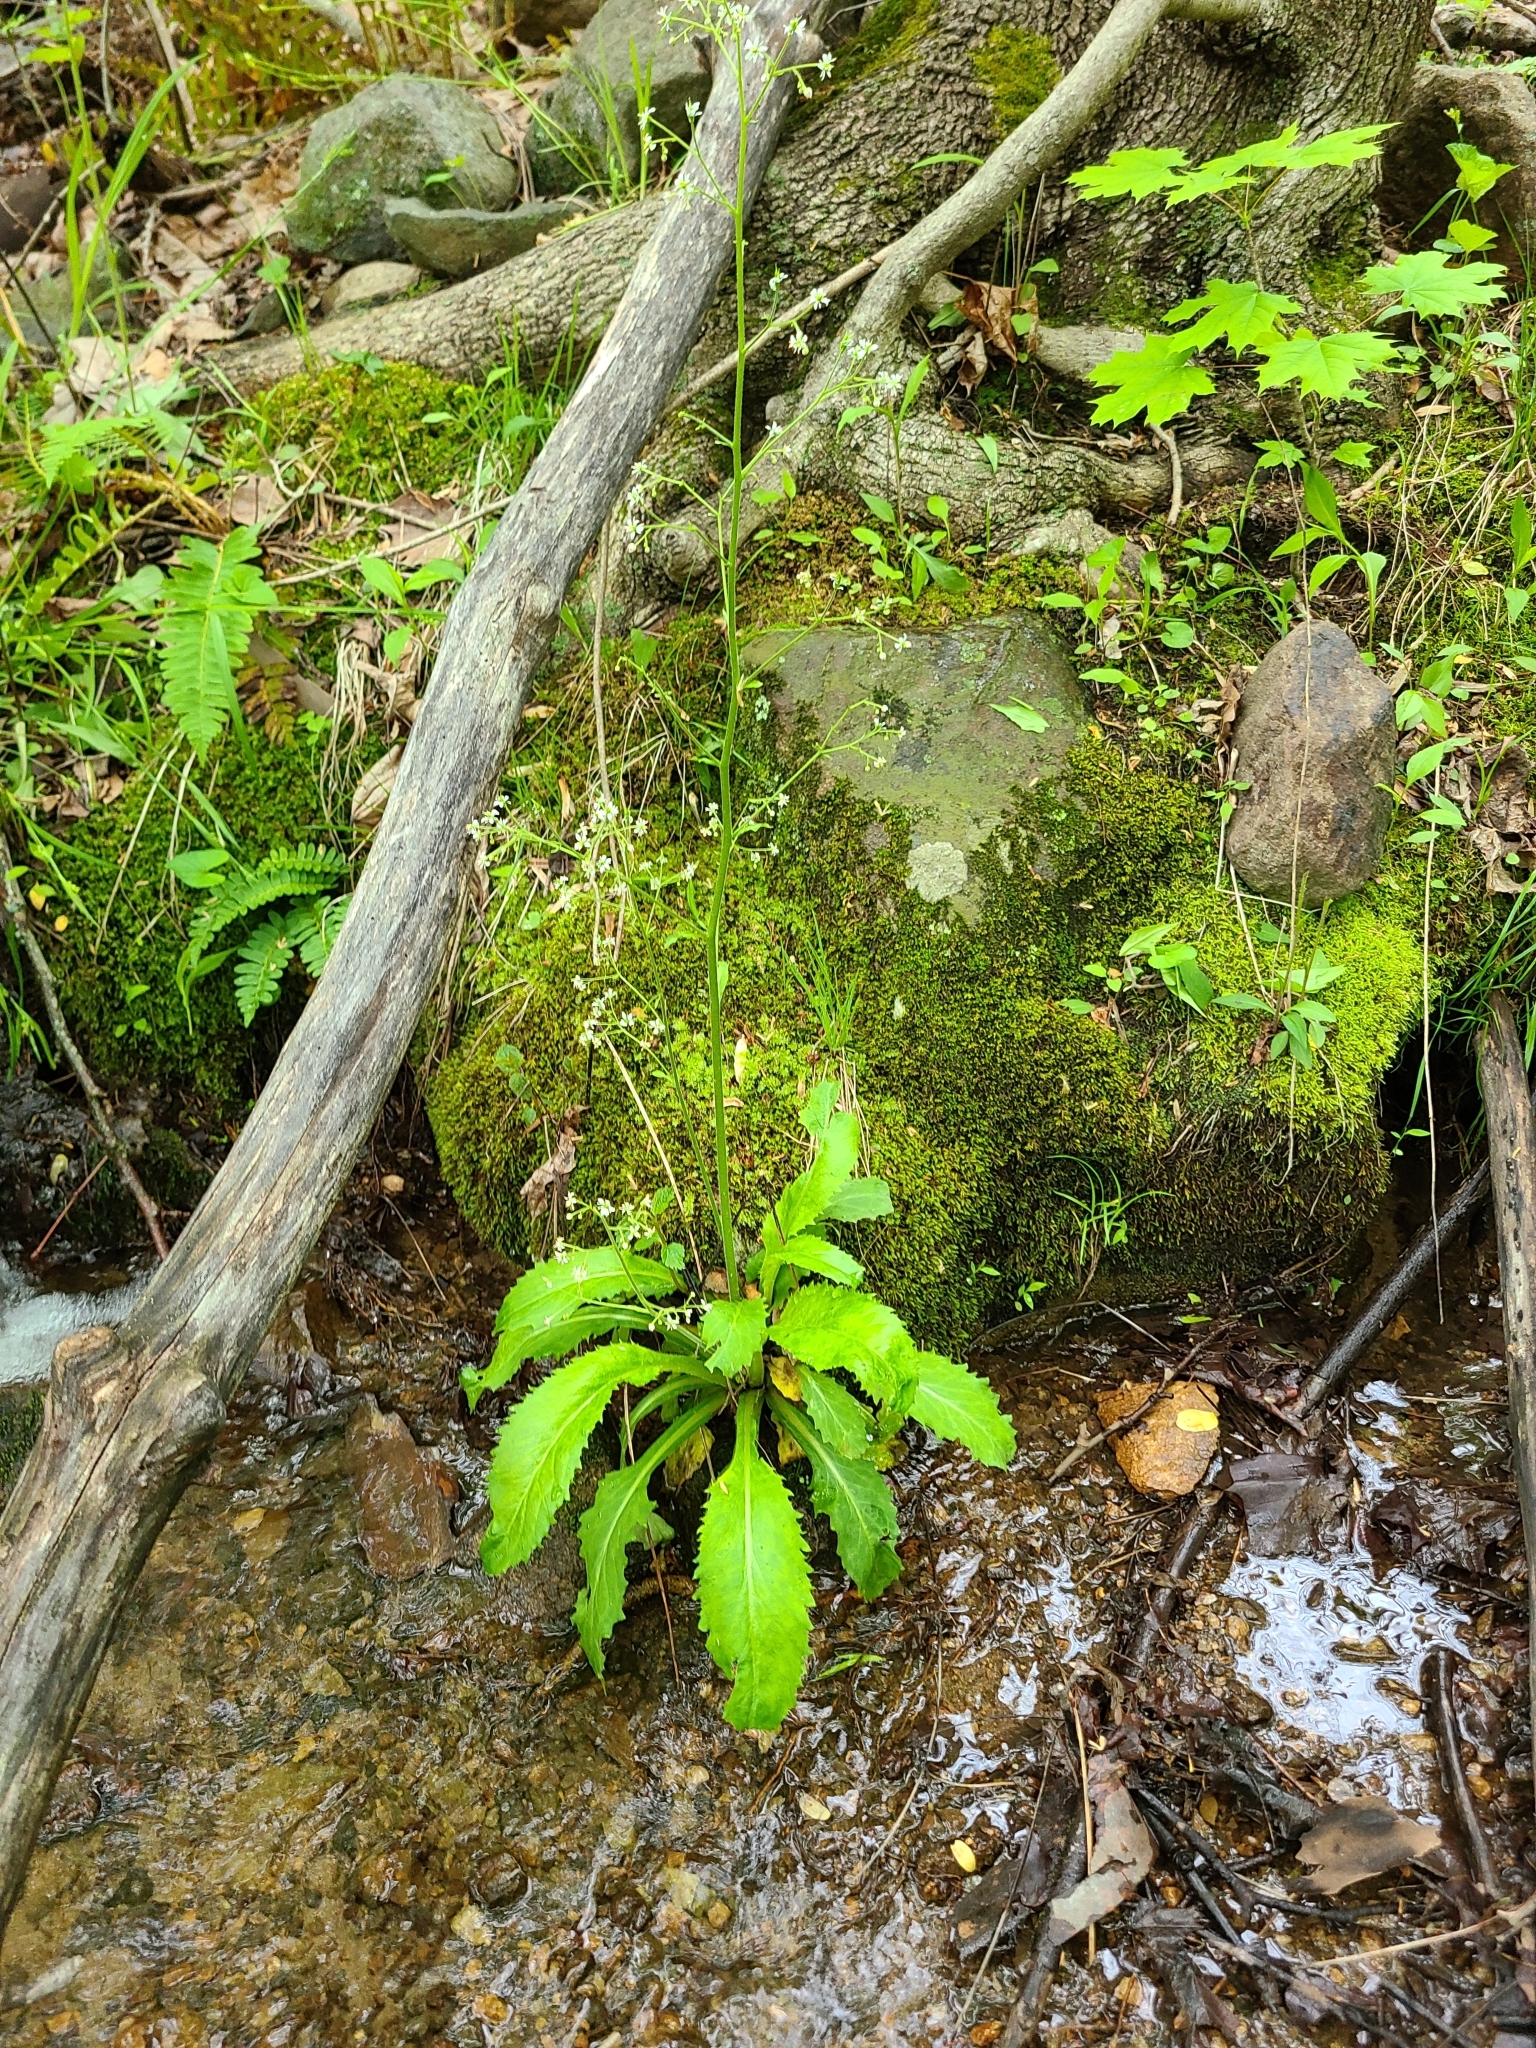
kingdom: Plantae
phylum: Tracheophyta
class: Magnoliopsida
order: Saxifragales
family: Saxifragaceae
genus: Micranthes
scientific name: Micranthes micranthidifolia
